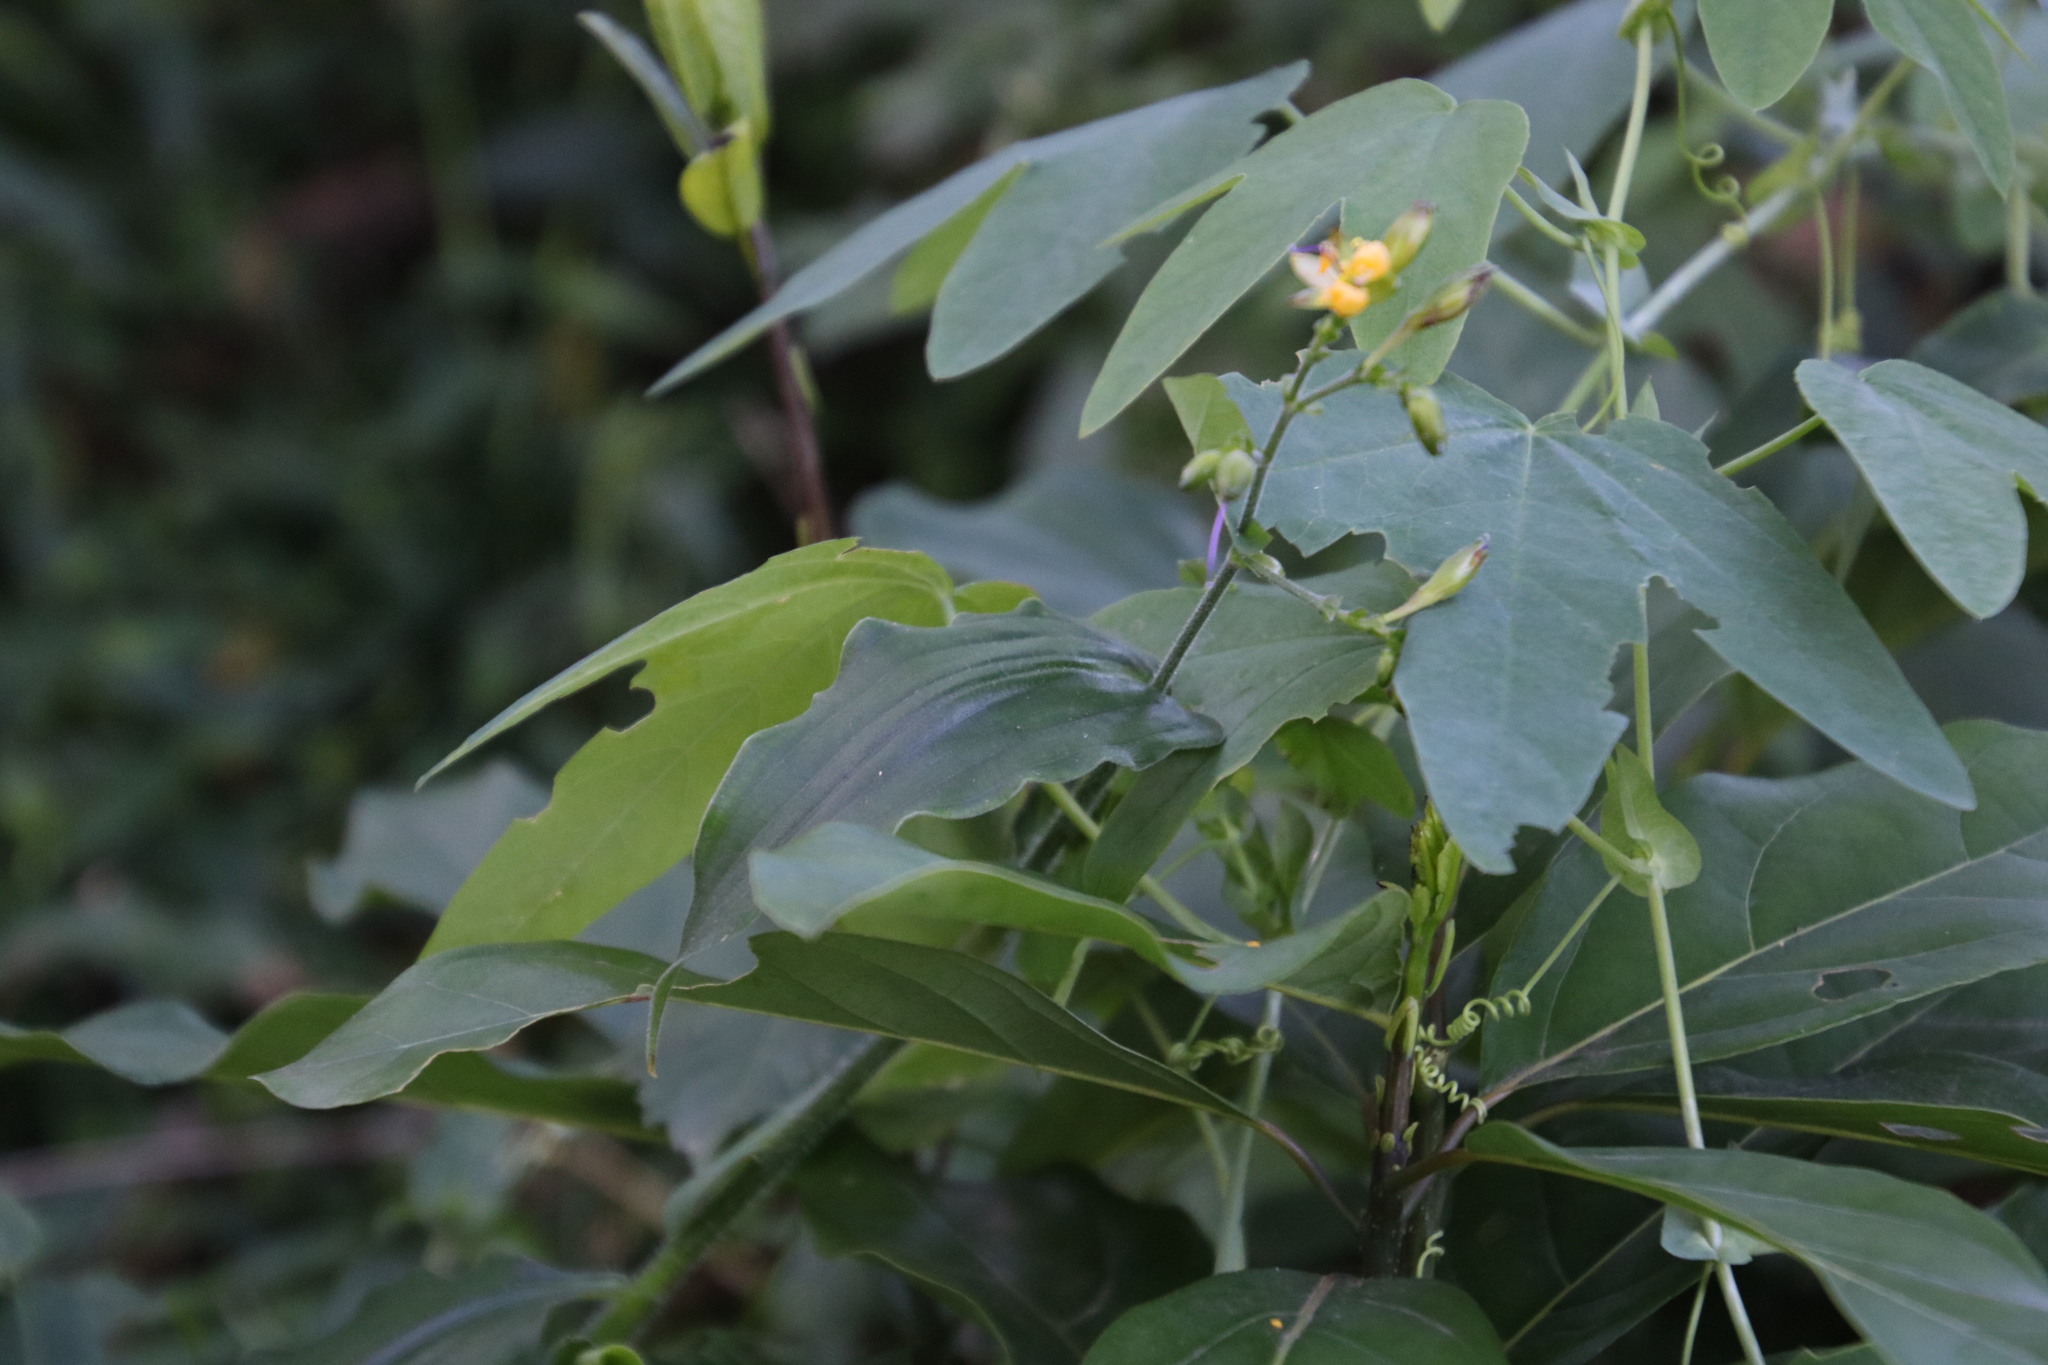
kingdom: Plantae
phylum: Tracheophyta
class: Liliopsida
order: Commelinales
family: Commelinaceae
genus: Aneilema
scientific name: Aneilema aequinoctiale
